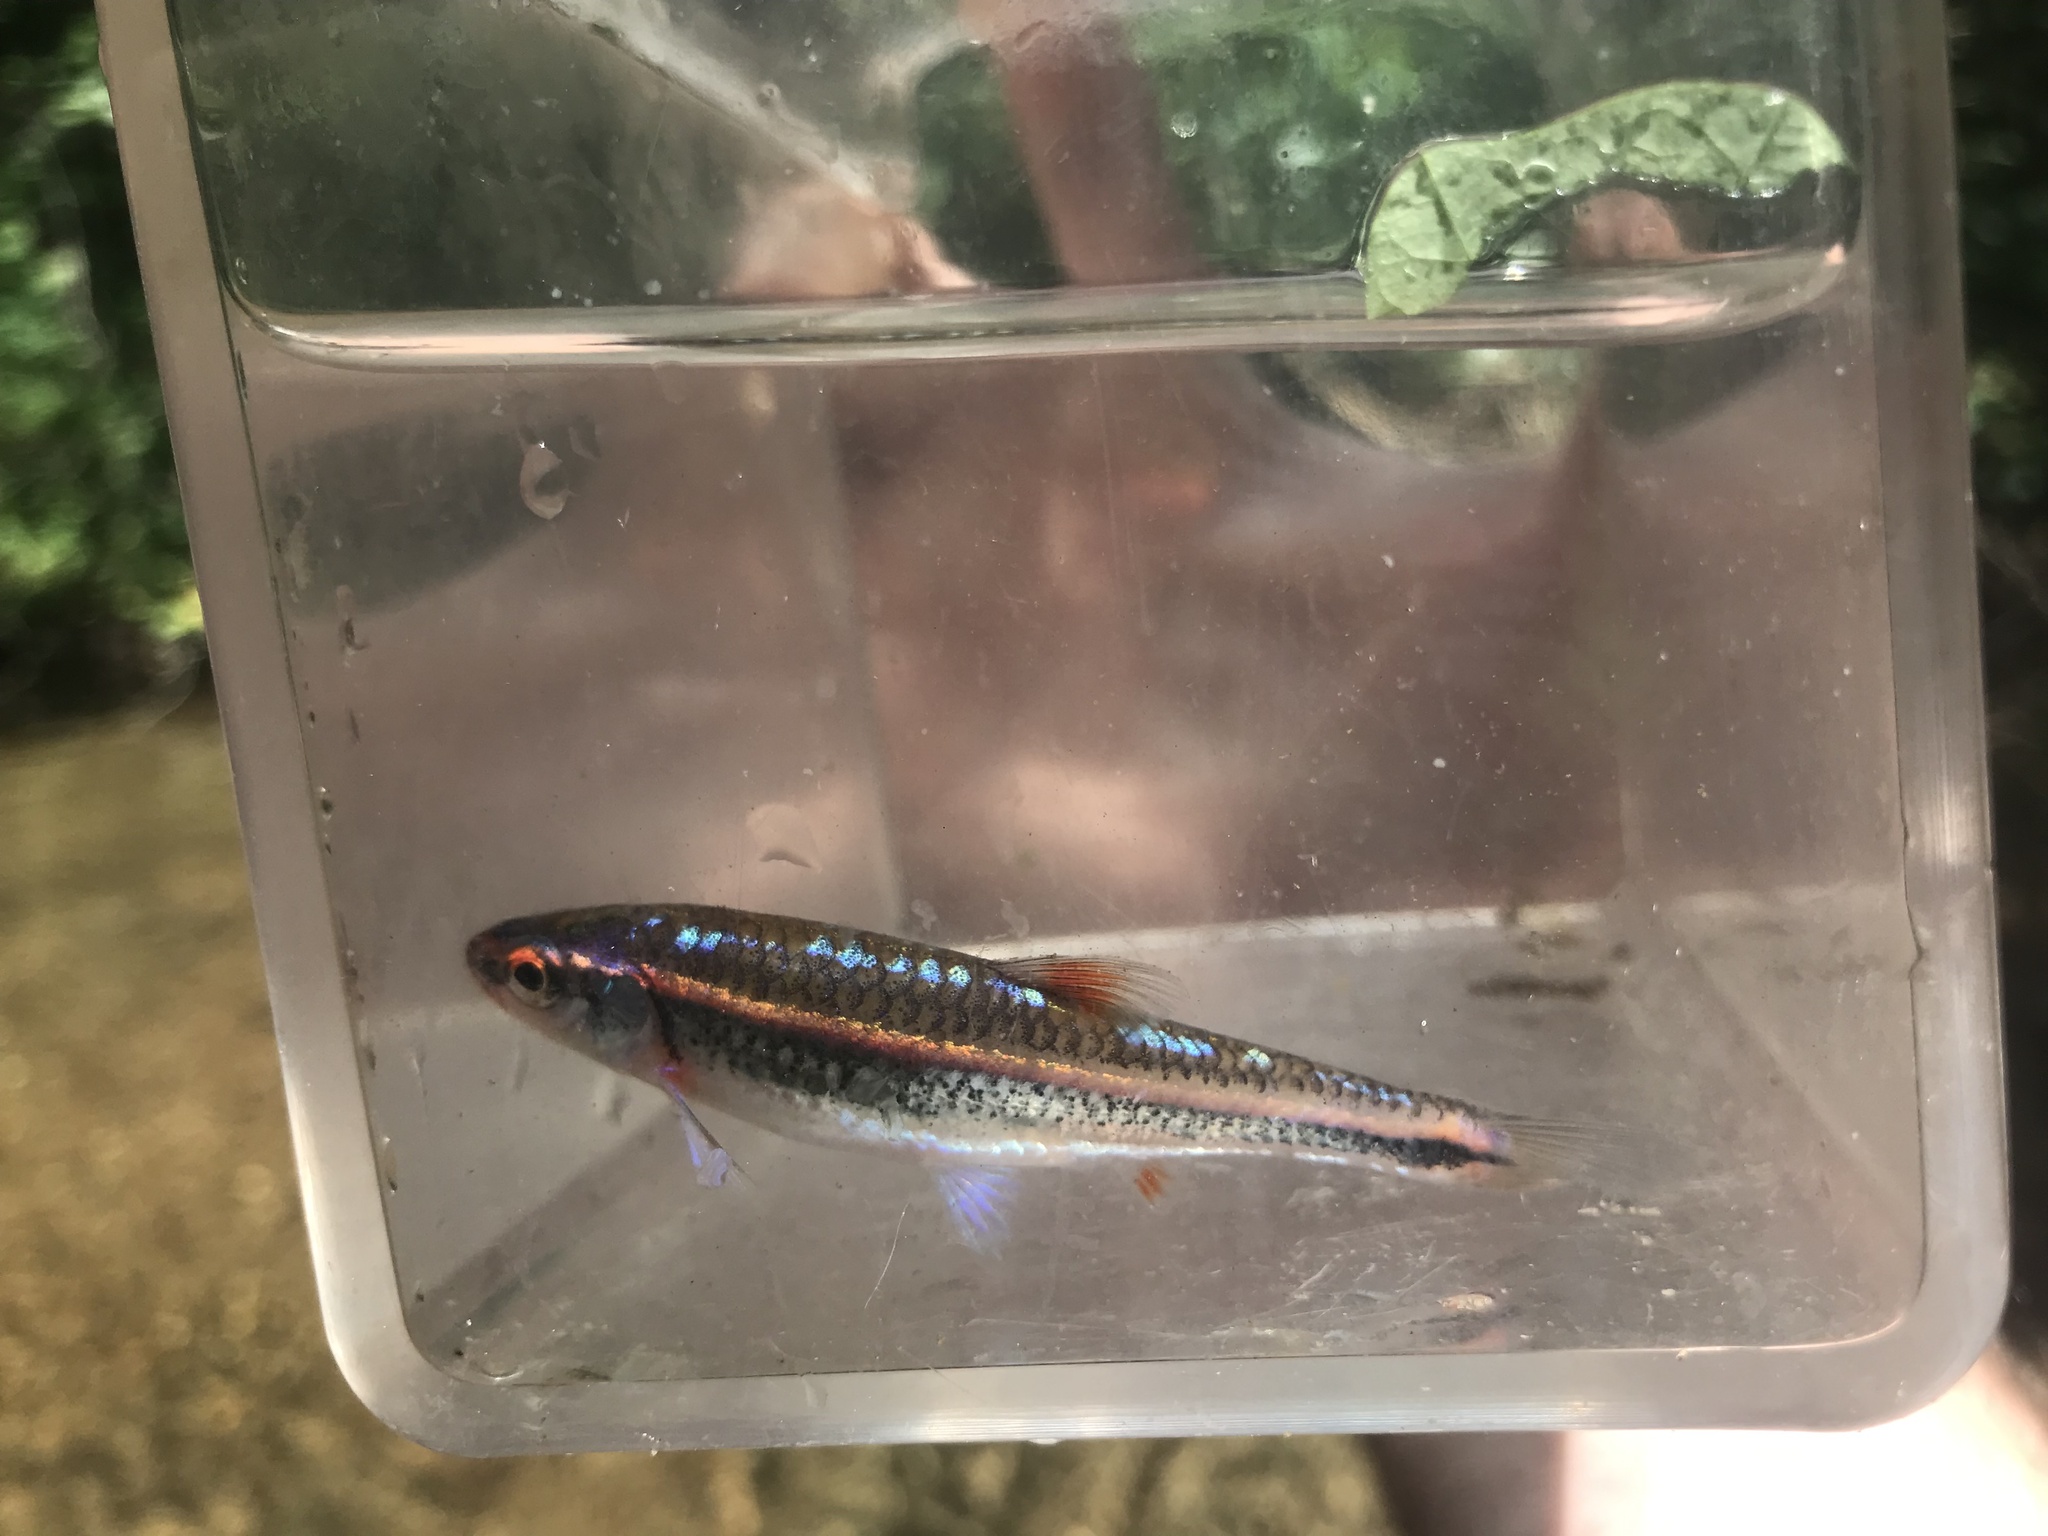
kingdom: Animalia
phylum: Chordata
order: Cypriniformes
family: Cyprinidae
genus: Notropis
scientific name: Notropis
